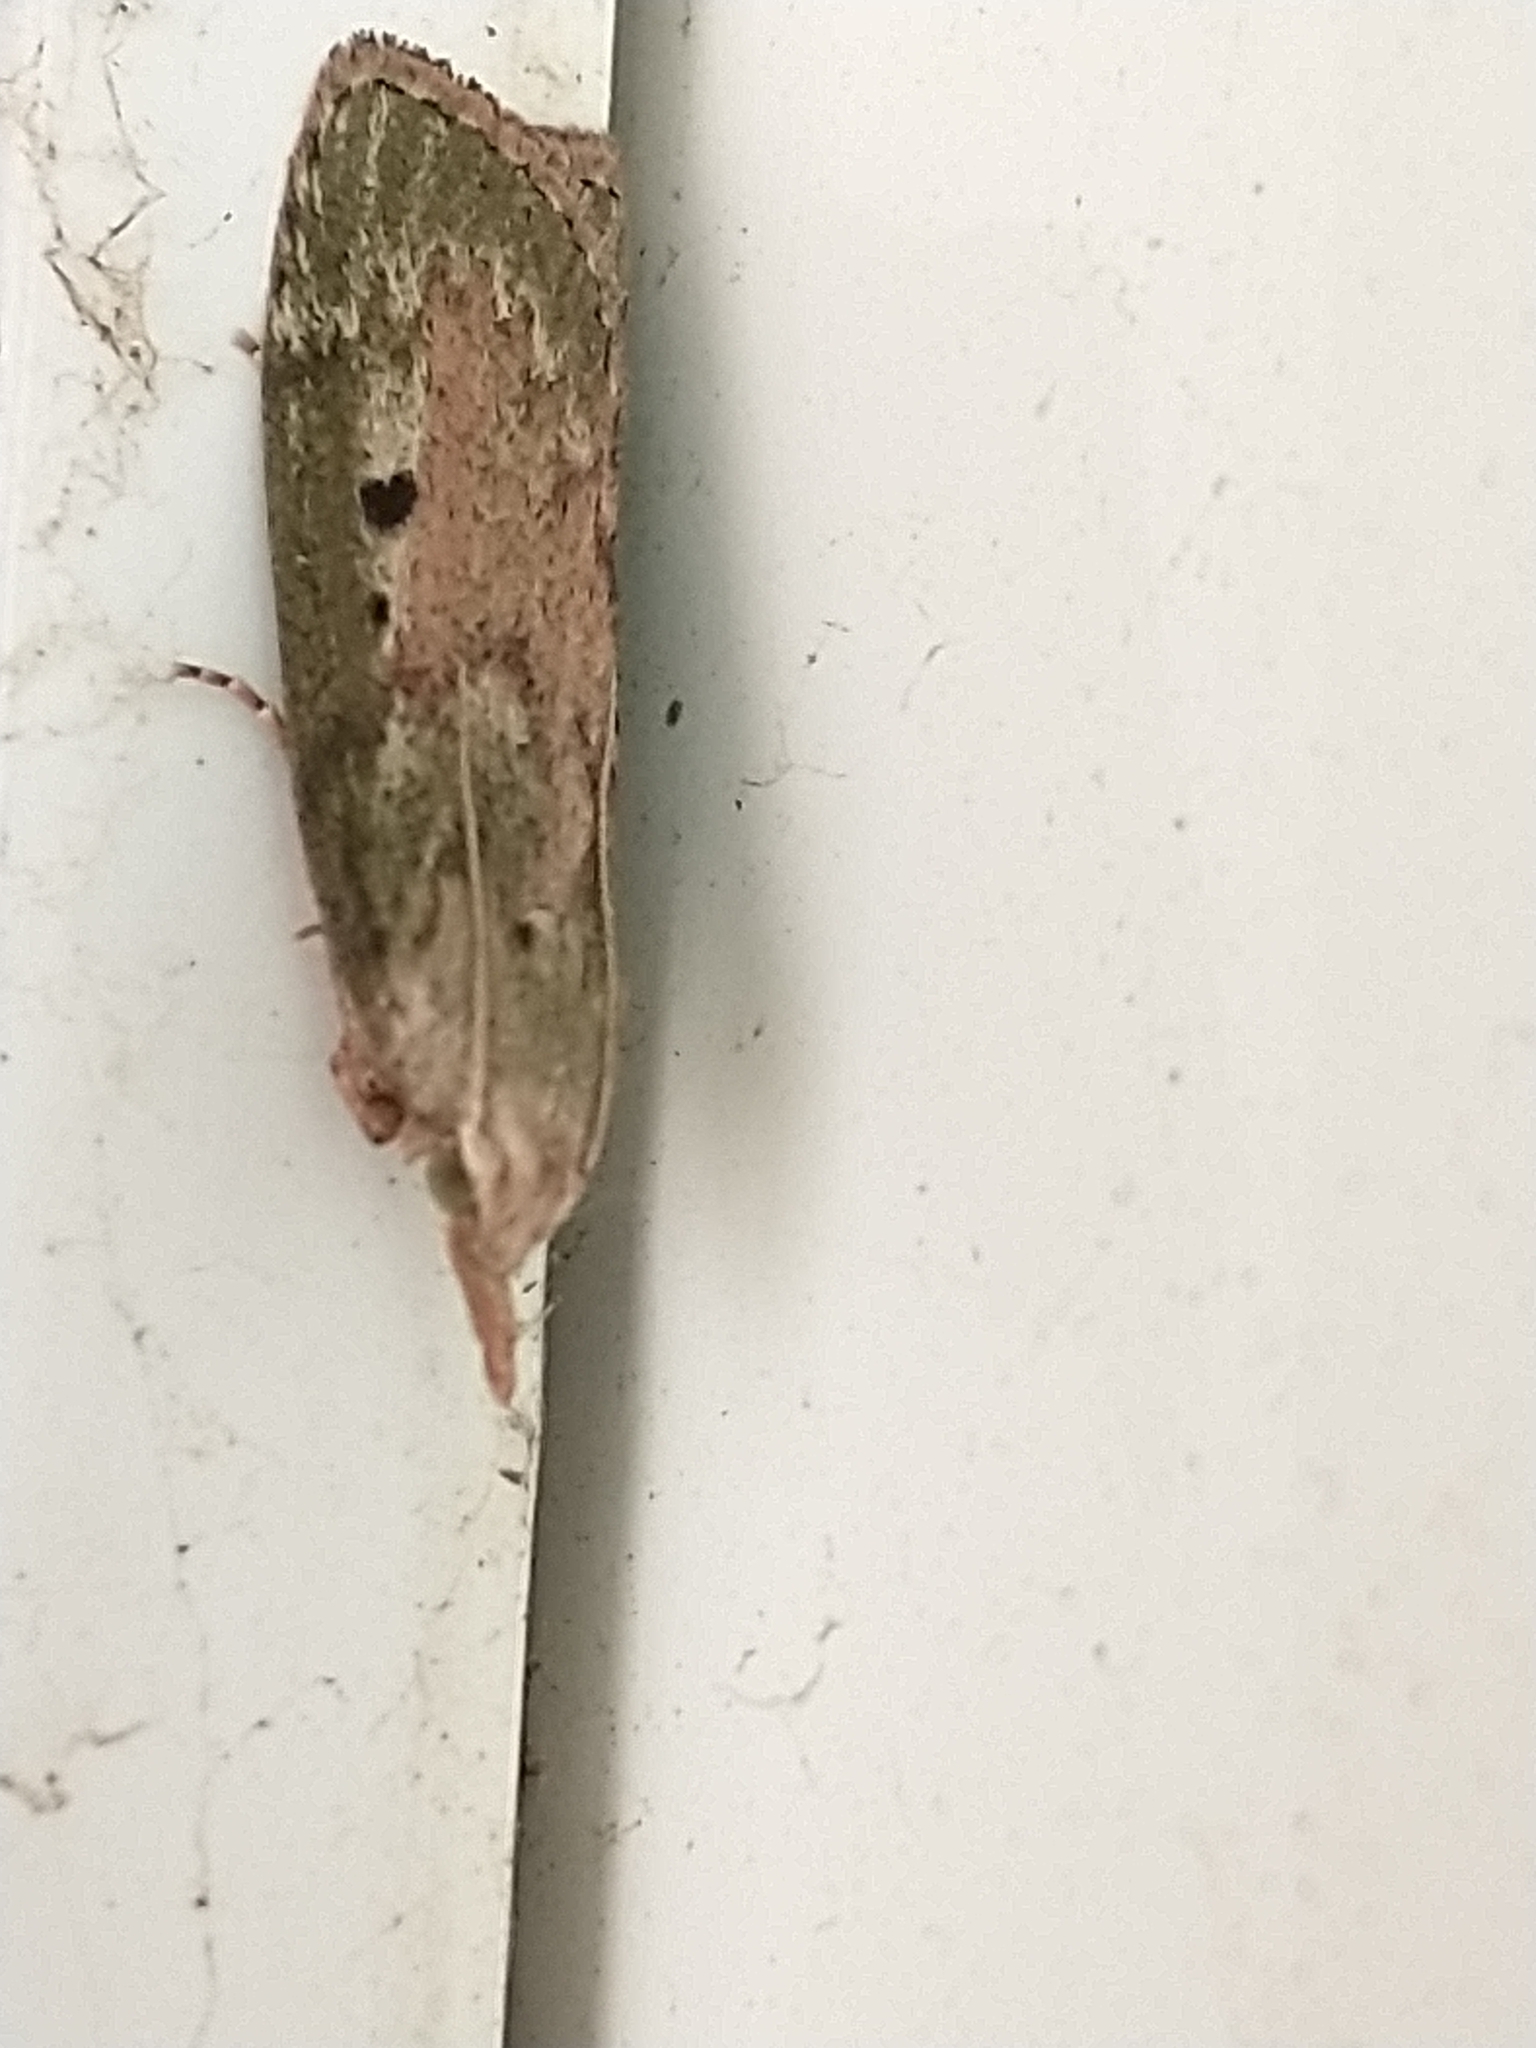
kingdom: Animalia
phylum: Arthropoda
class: Insecta
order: Lepidoptera
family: Pyralidae
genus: Aphomia
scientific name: Aphomia sociella
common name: Bee moth
